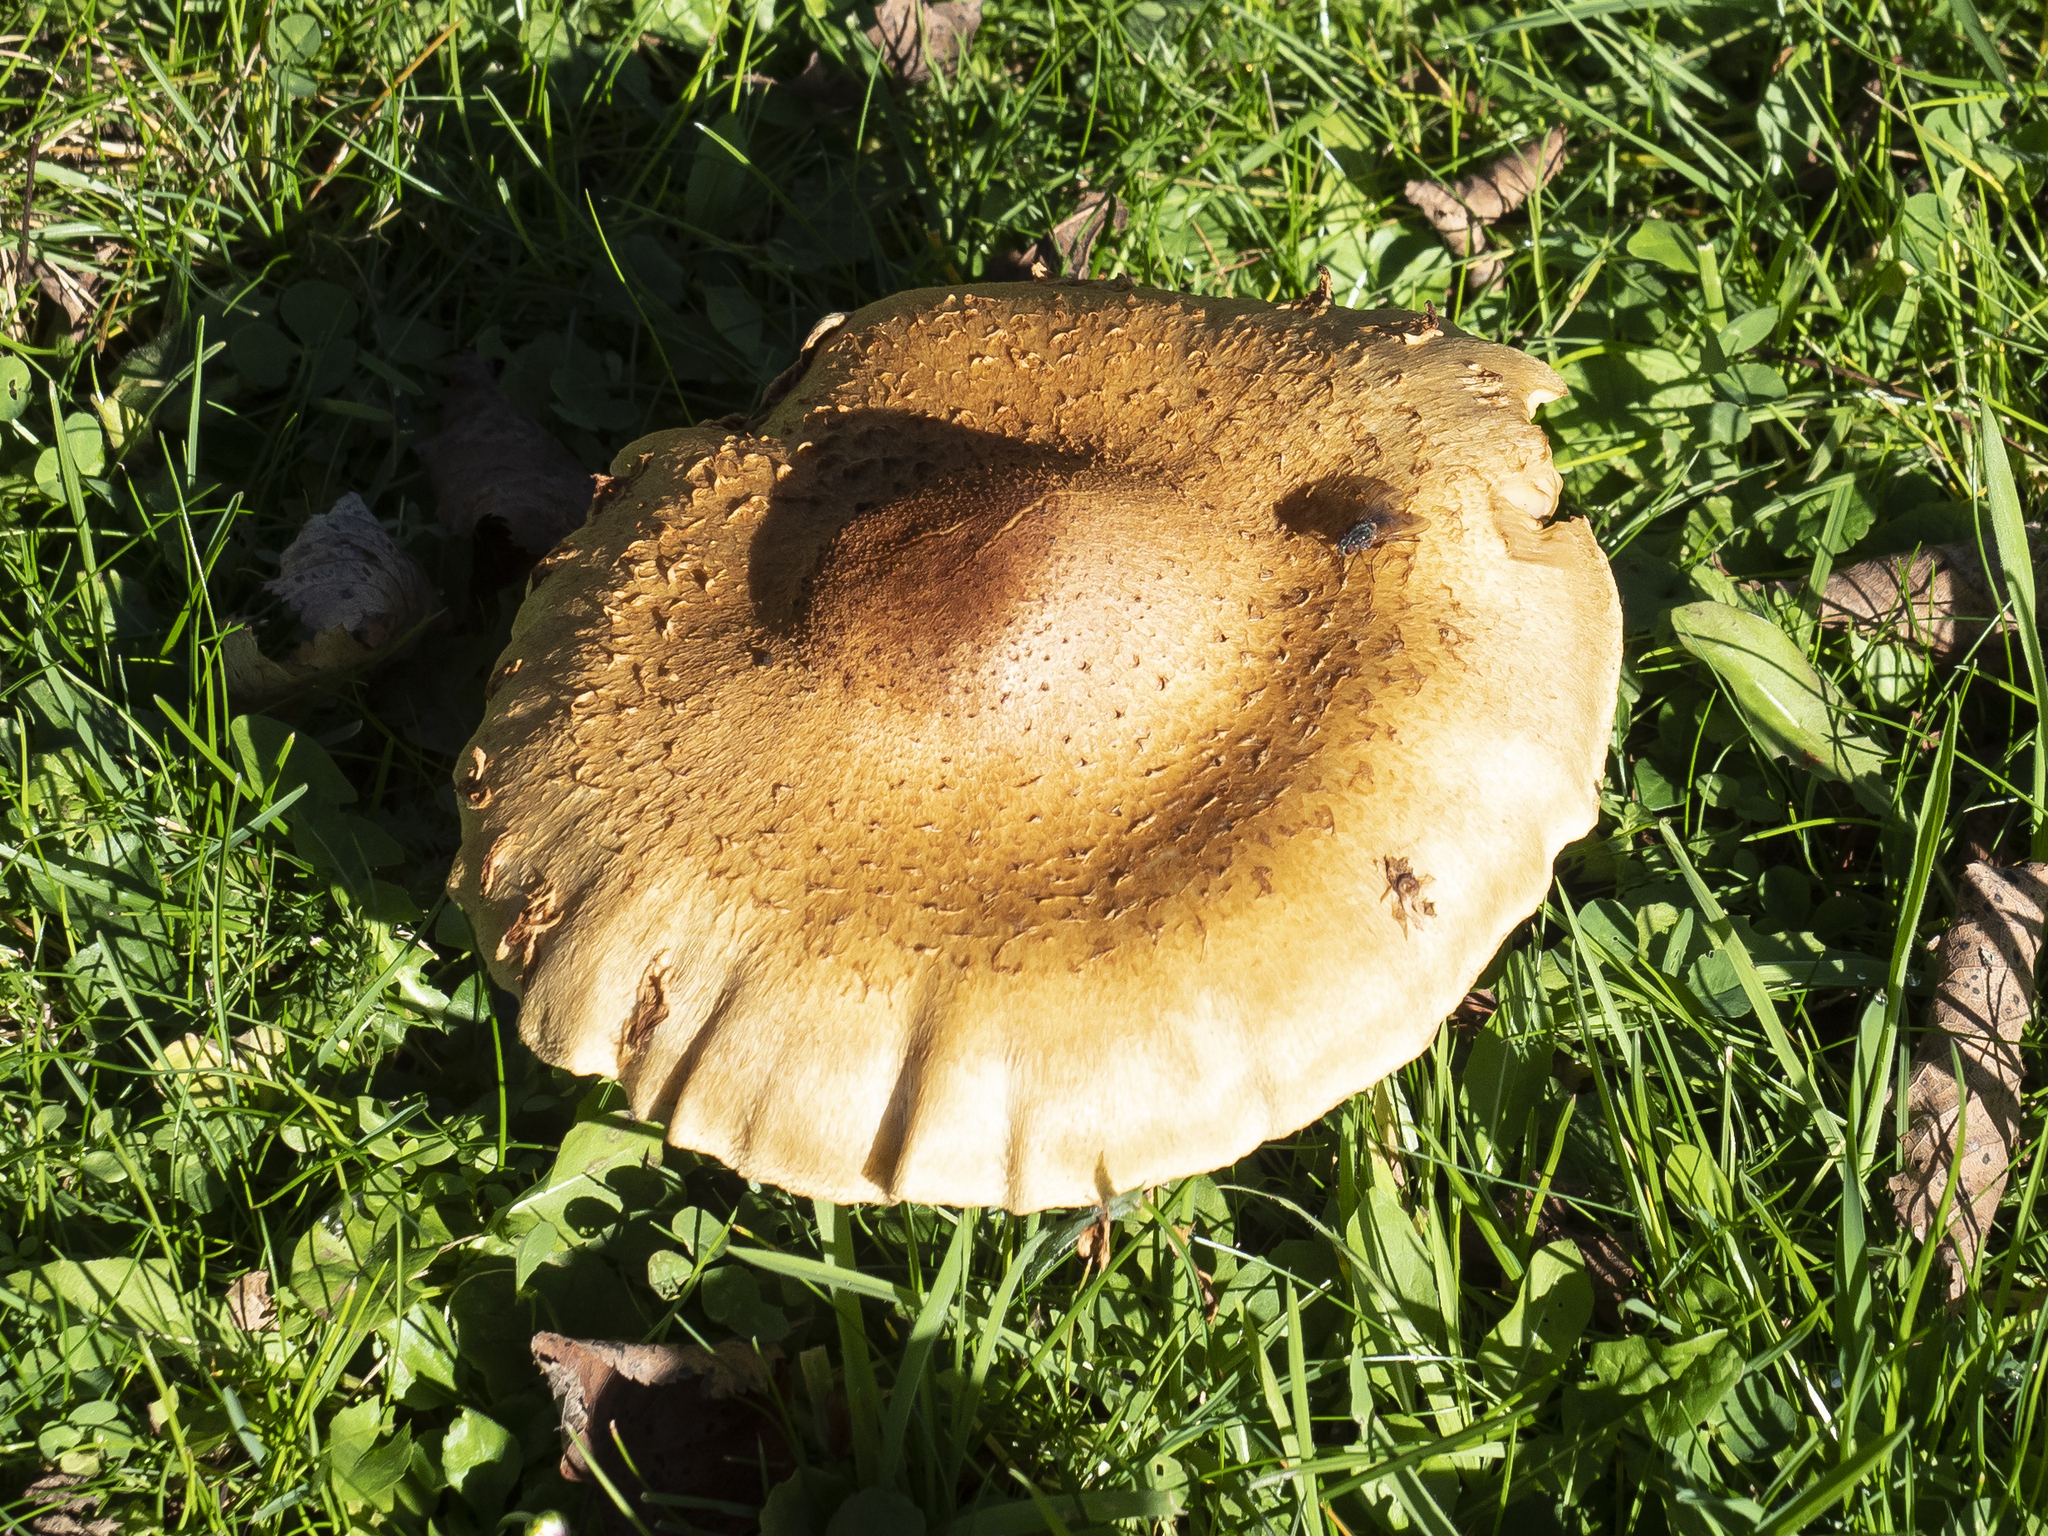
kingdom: Fungi
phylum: Basidiomycota
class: Agaricomycetes
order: Agaricales
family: Strophariaceae
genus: Pholiota
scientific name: Pholiota squarrosa
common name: Shaggy pholiota
